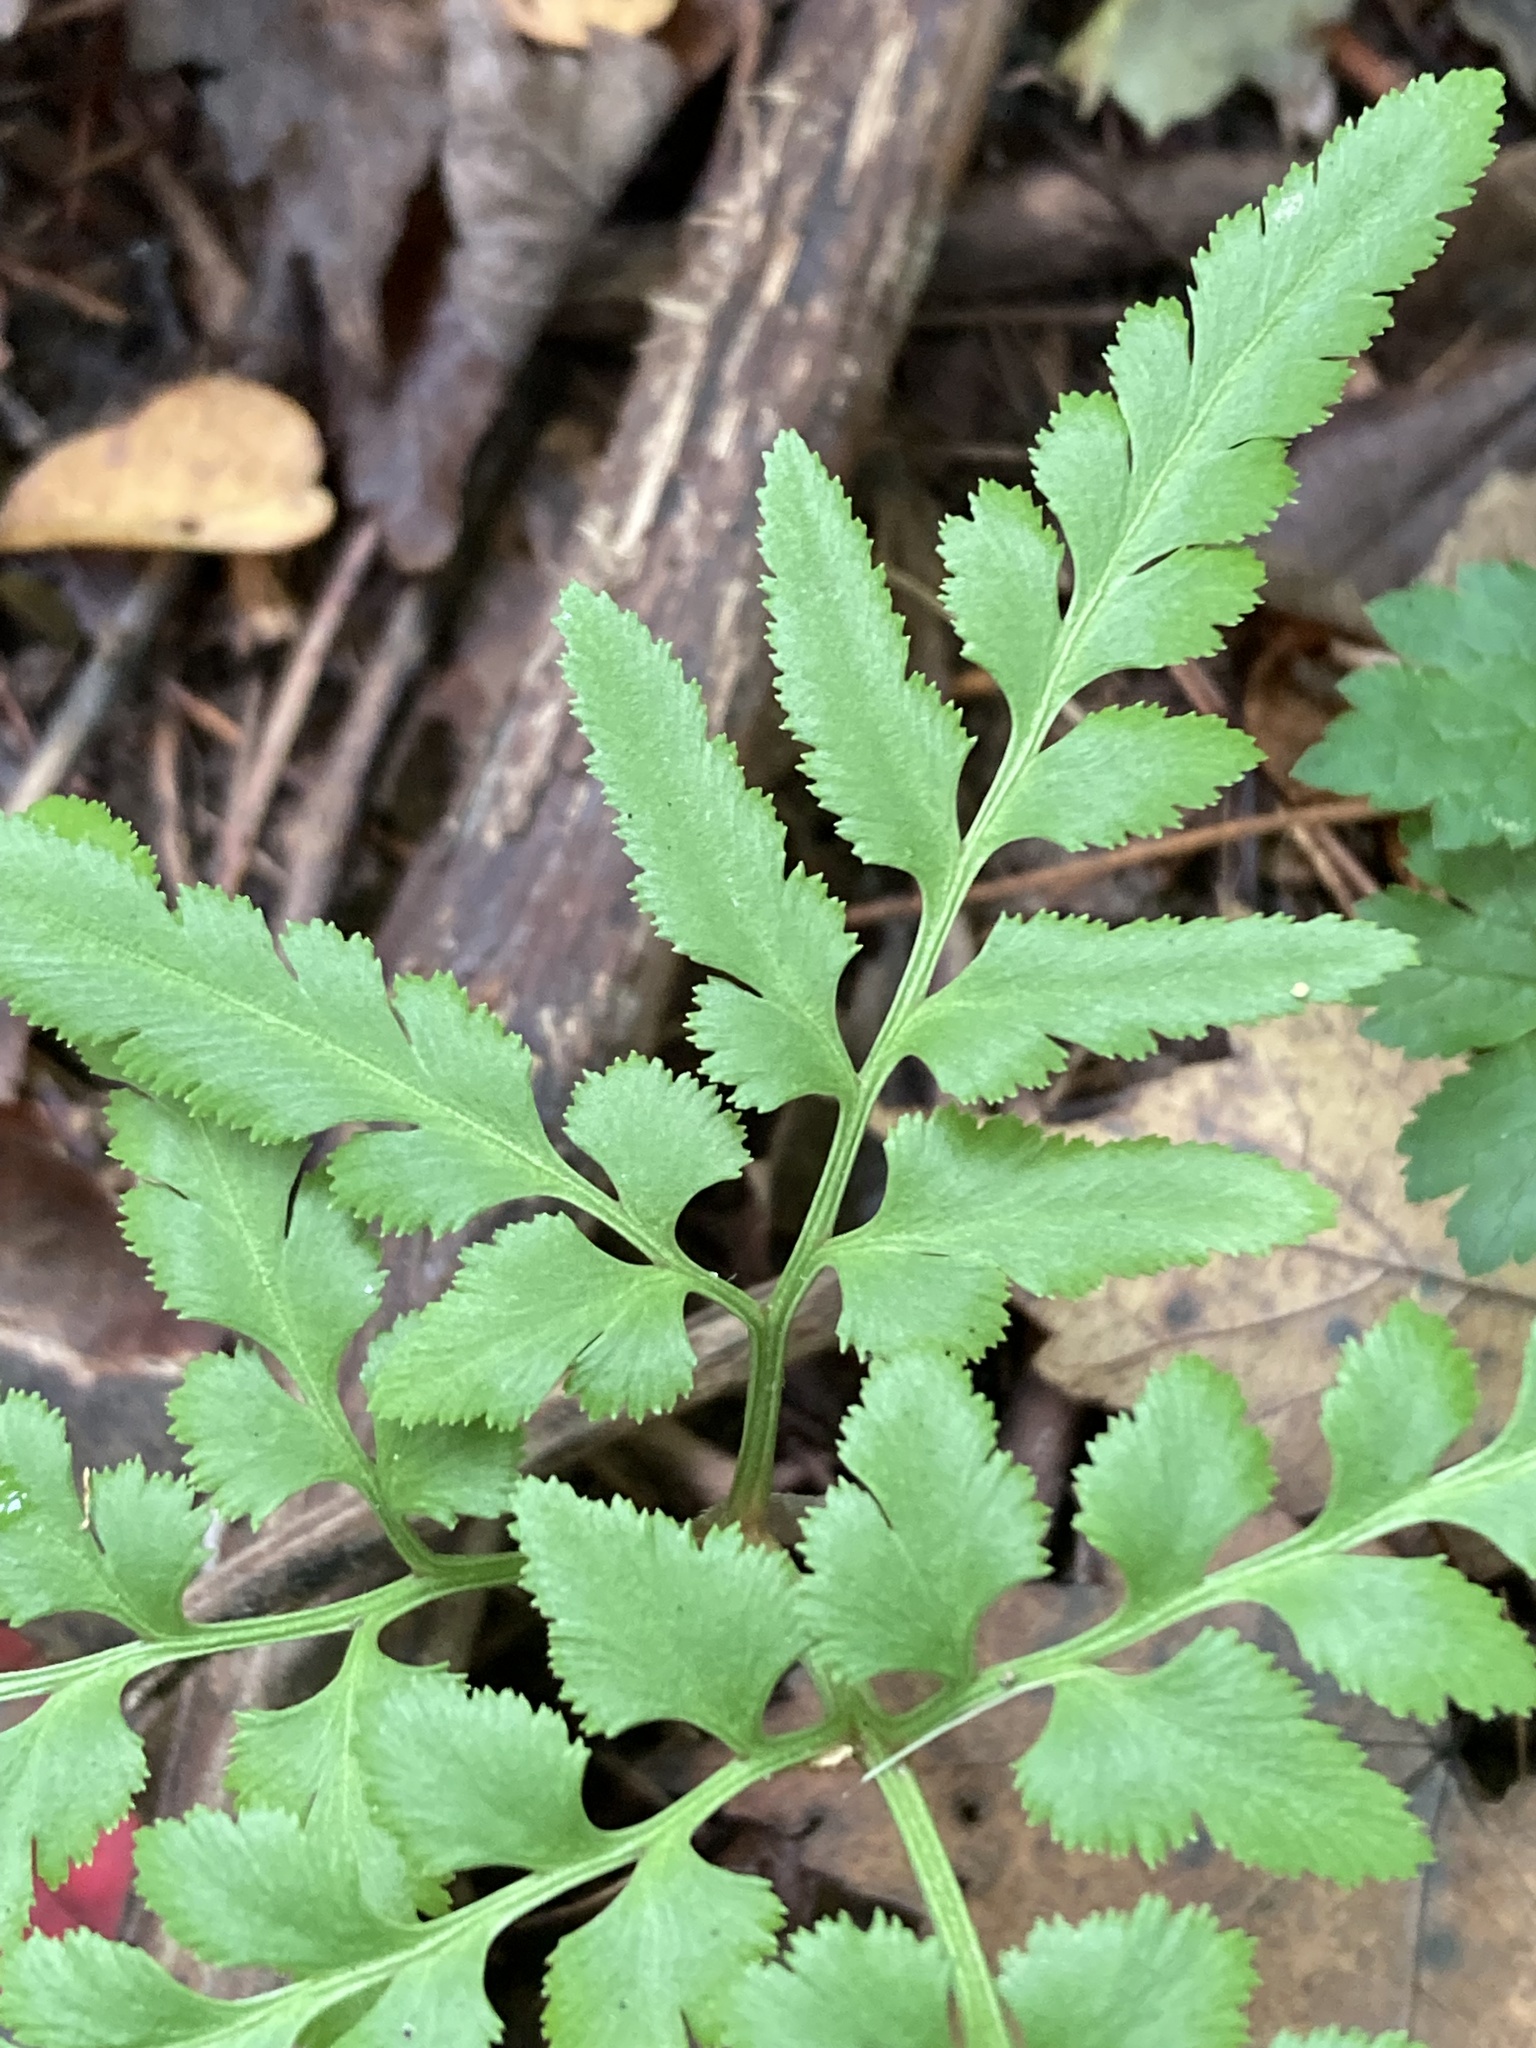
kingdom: Plantae
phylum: Tracheophyta
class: Polypodiopsida
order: Ophioglossales
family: Ophioglossaceae
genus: Sceptridium
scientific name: Sceptridium dissectum
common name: Cut-leaved grapefern
